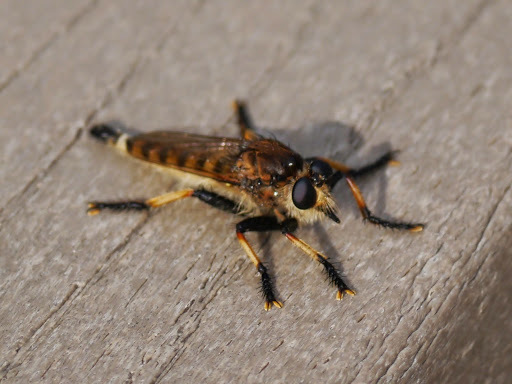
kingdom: Animalia
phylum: Arthropoda
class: Insecta
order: Diptera
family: Asilidae
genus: Promachus
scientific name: Promachus rufipes
